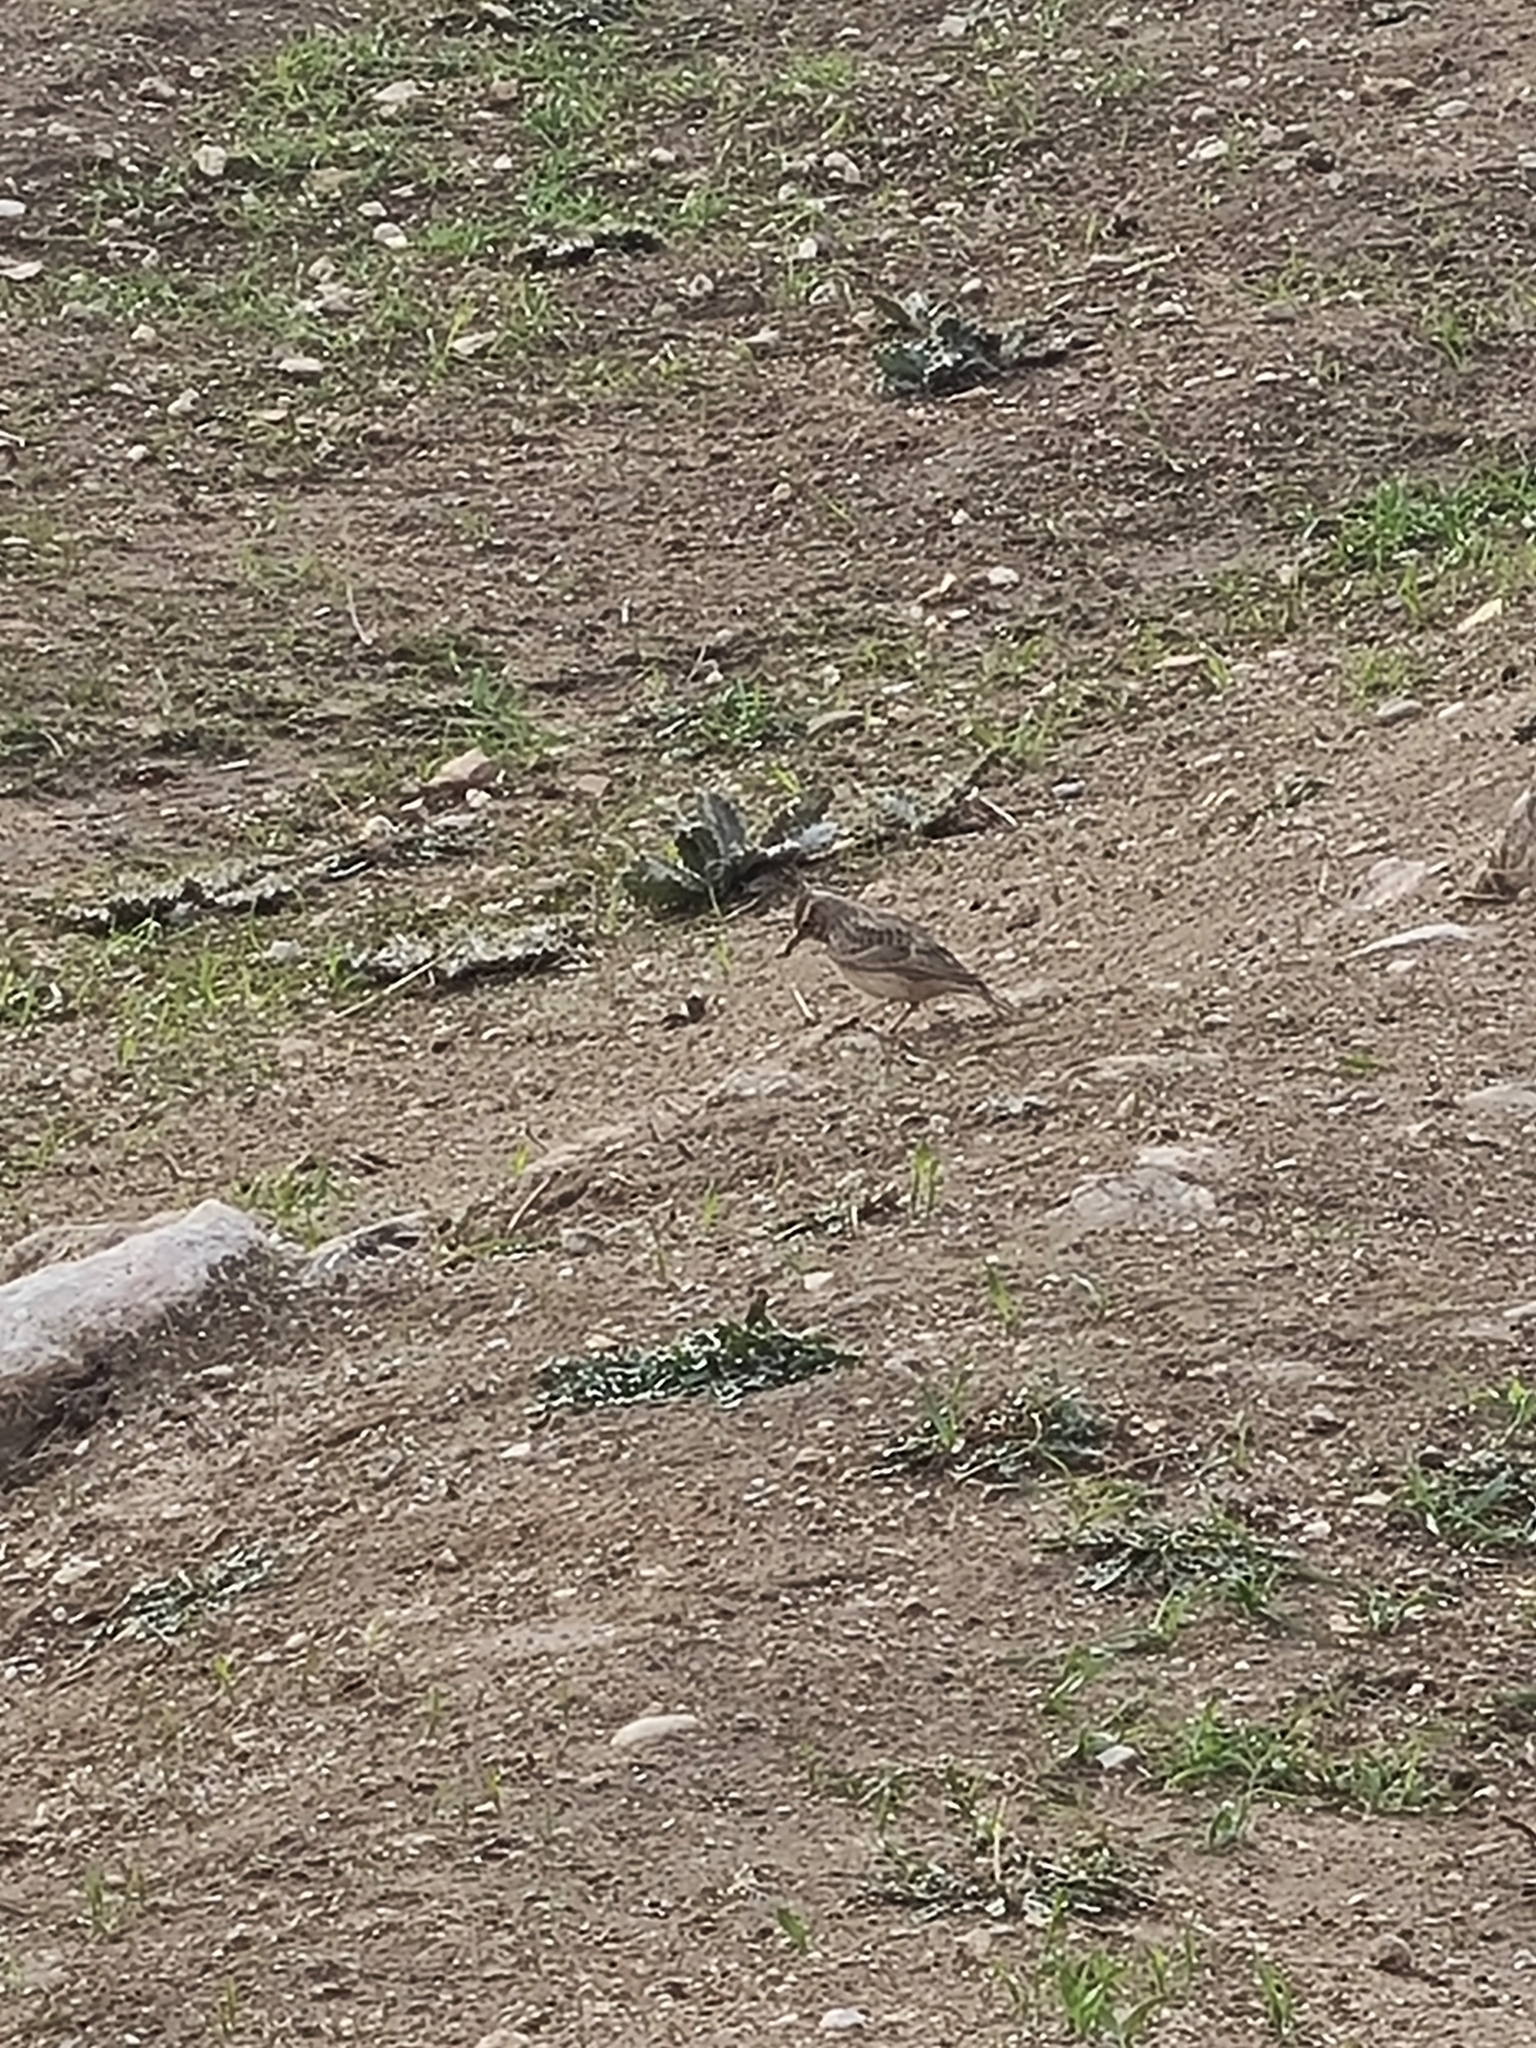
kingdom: Animalia
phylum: Chordata
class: Aves
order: Passeriformes
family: Alaudidae
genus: Galerida
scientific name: Galerida cristata
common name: Crested lark
